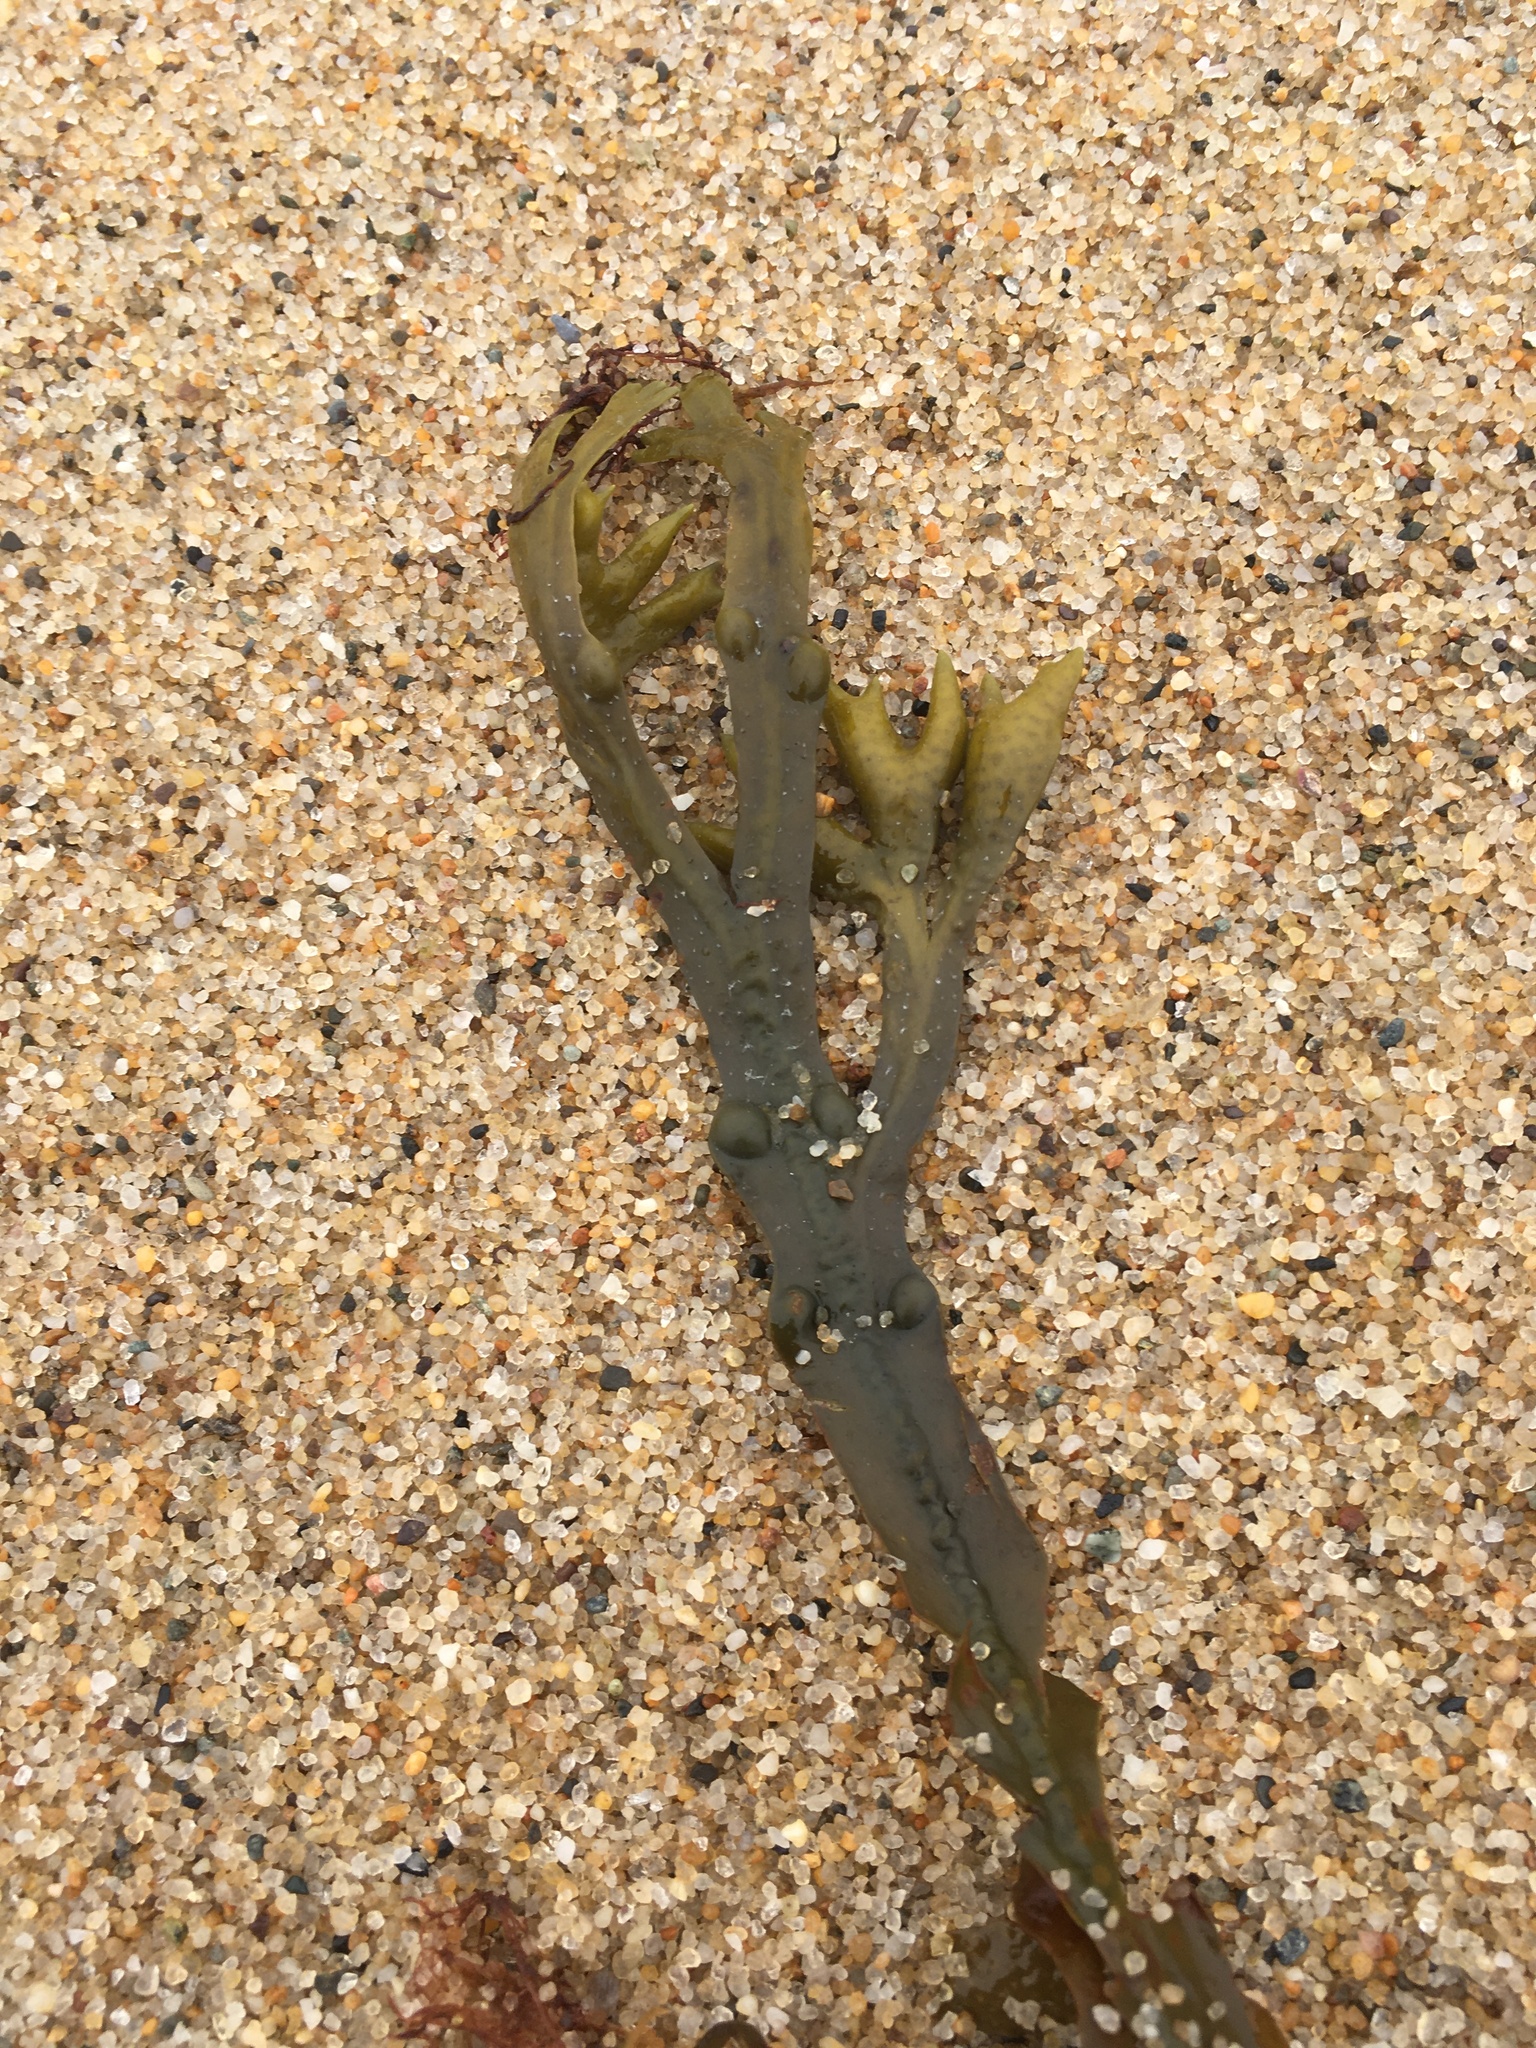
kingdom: Chromista
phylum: Ochrophyta
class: Phaeophyceae
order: Fucales
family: Fucaceae
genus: Fucus
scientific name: Fucus vesiculosus
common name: Bladder wrack
